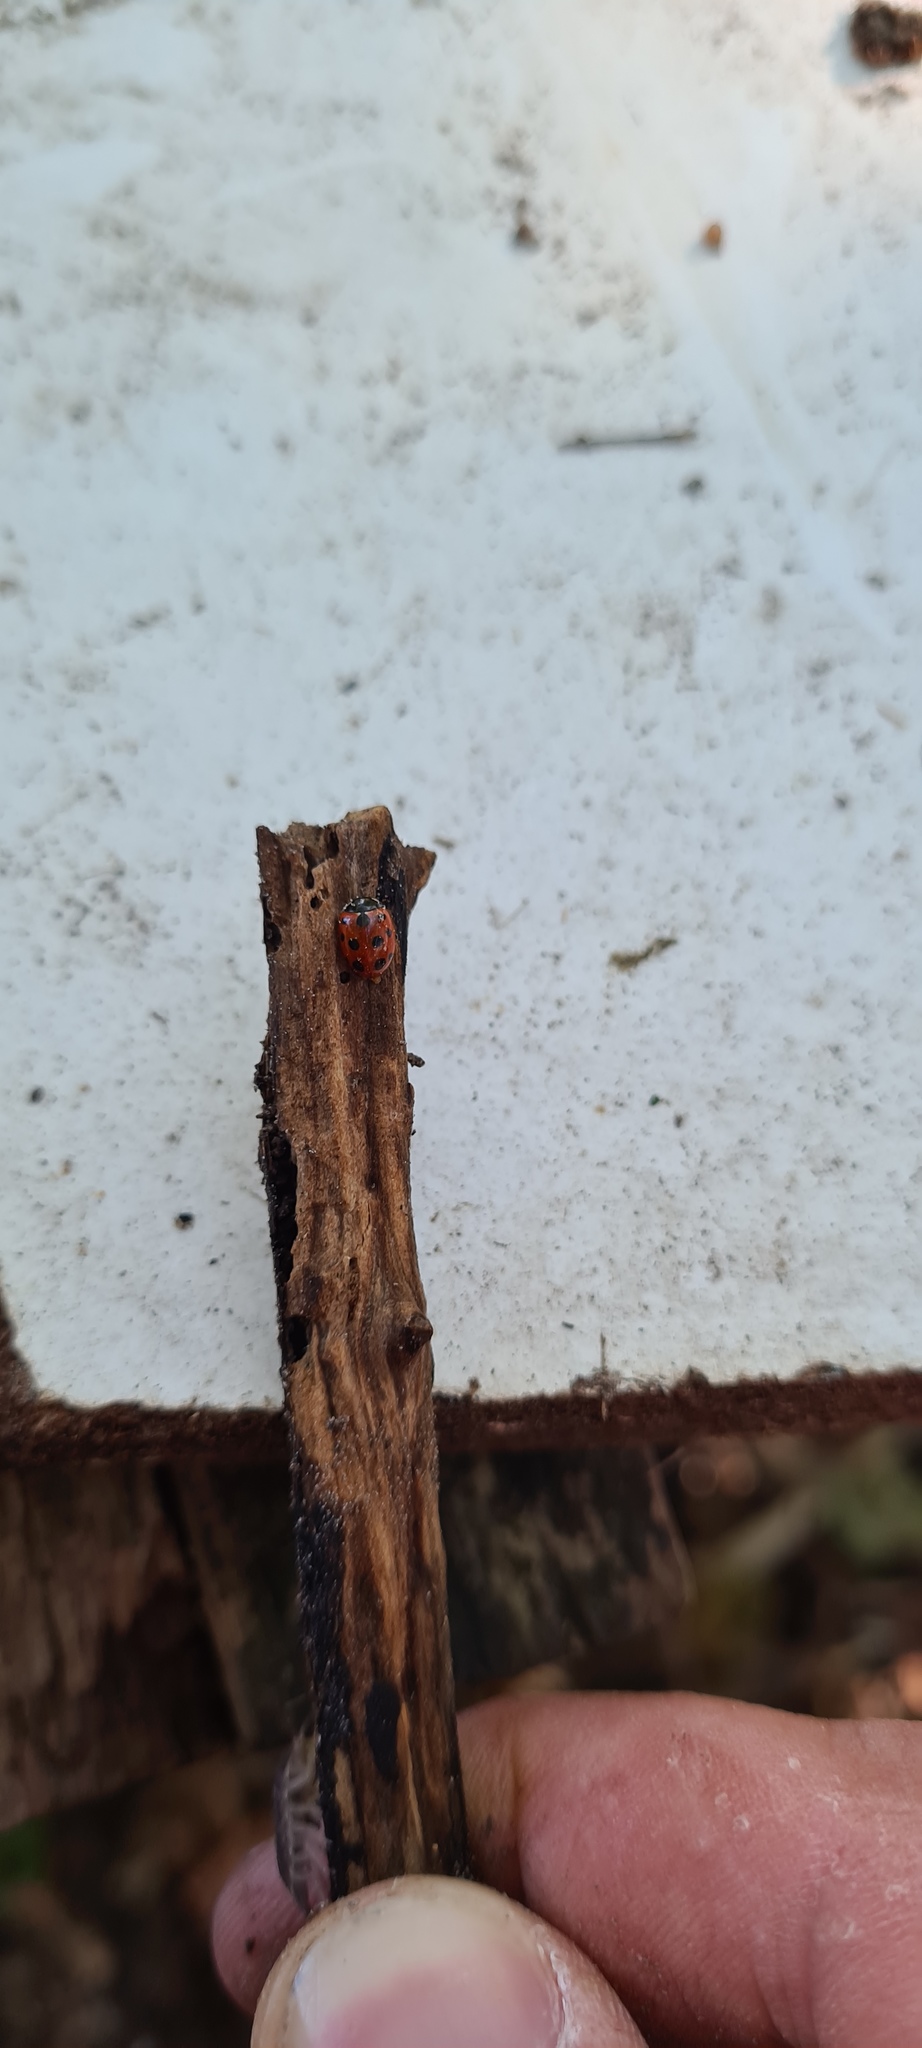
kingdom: Animalia
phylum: Arthropoda
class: Insecta
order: Coleoptera
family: Coccinellidae
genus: Coccinella
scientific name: Coccinella undecimpunctata
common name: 11-spot ladybird
